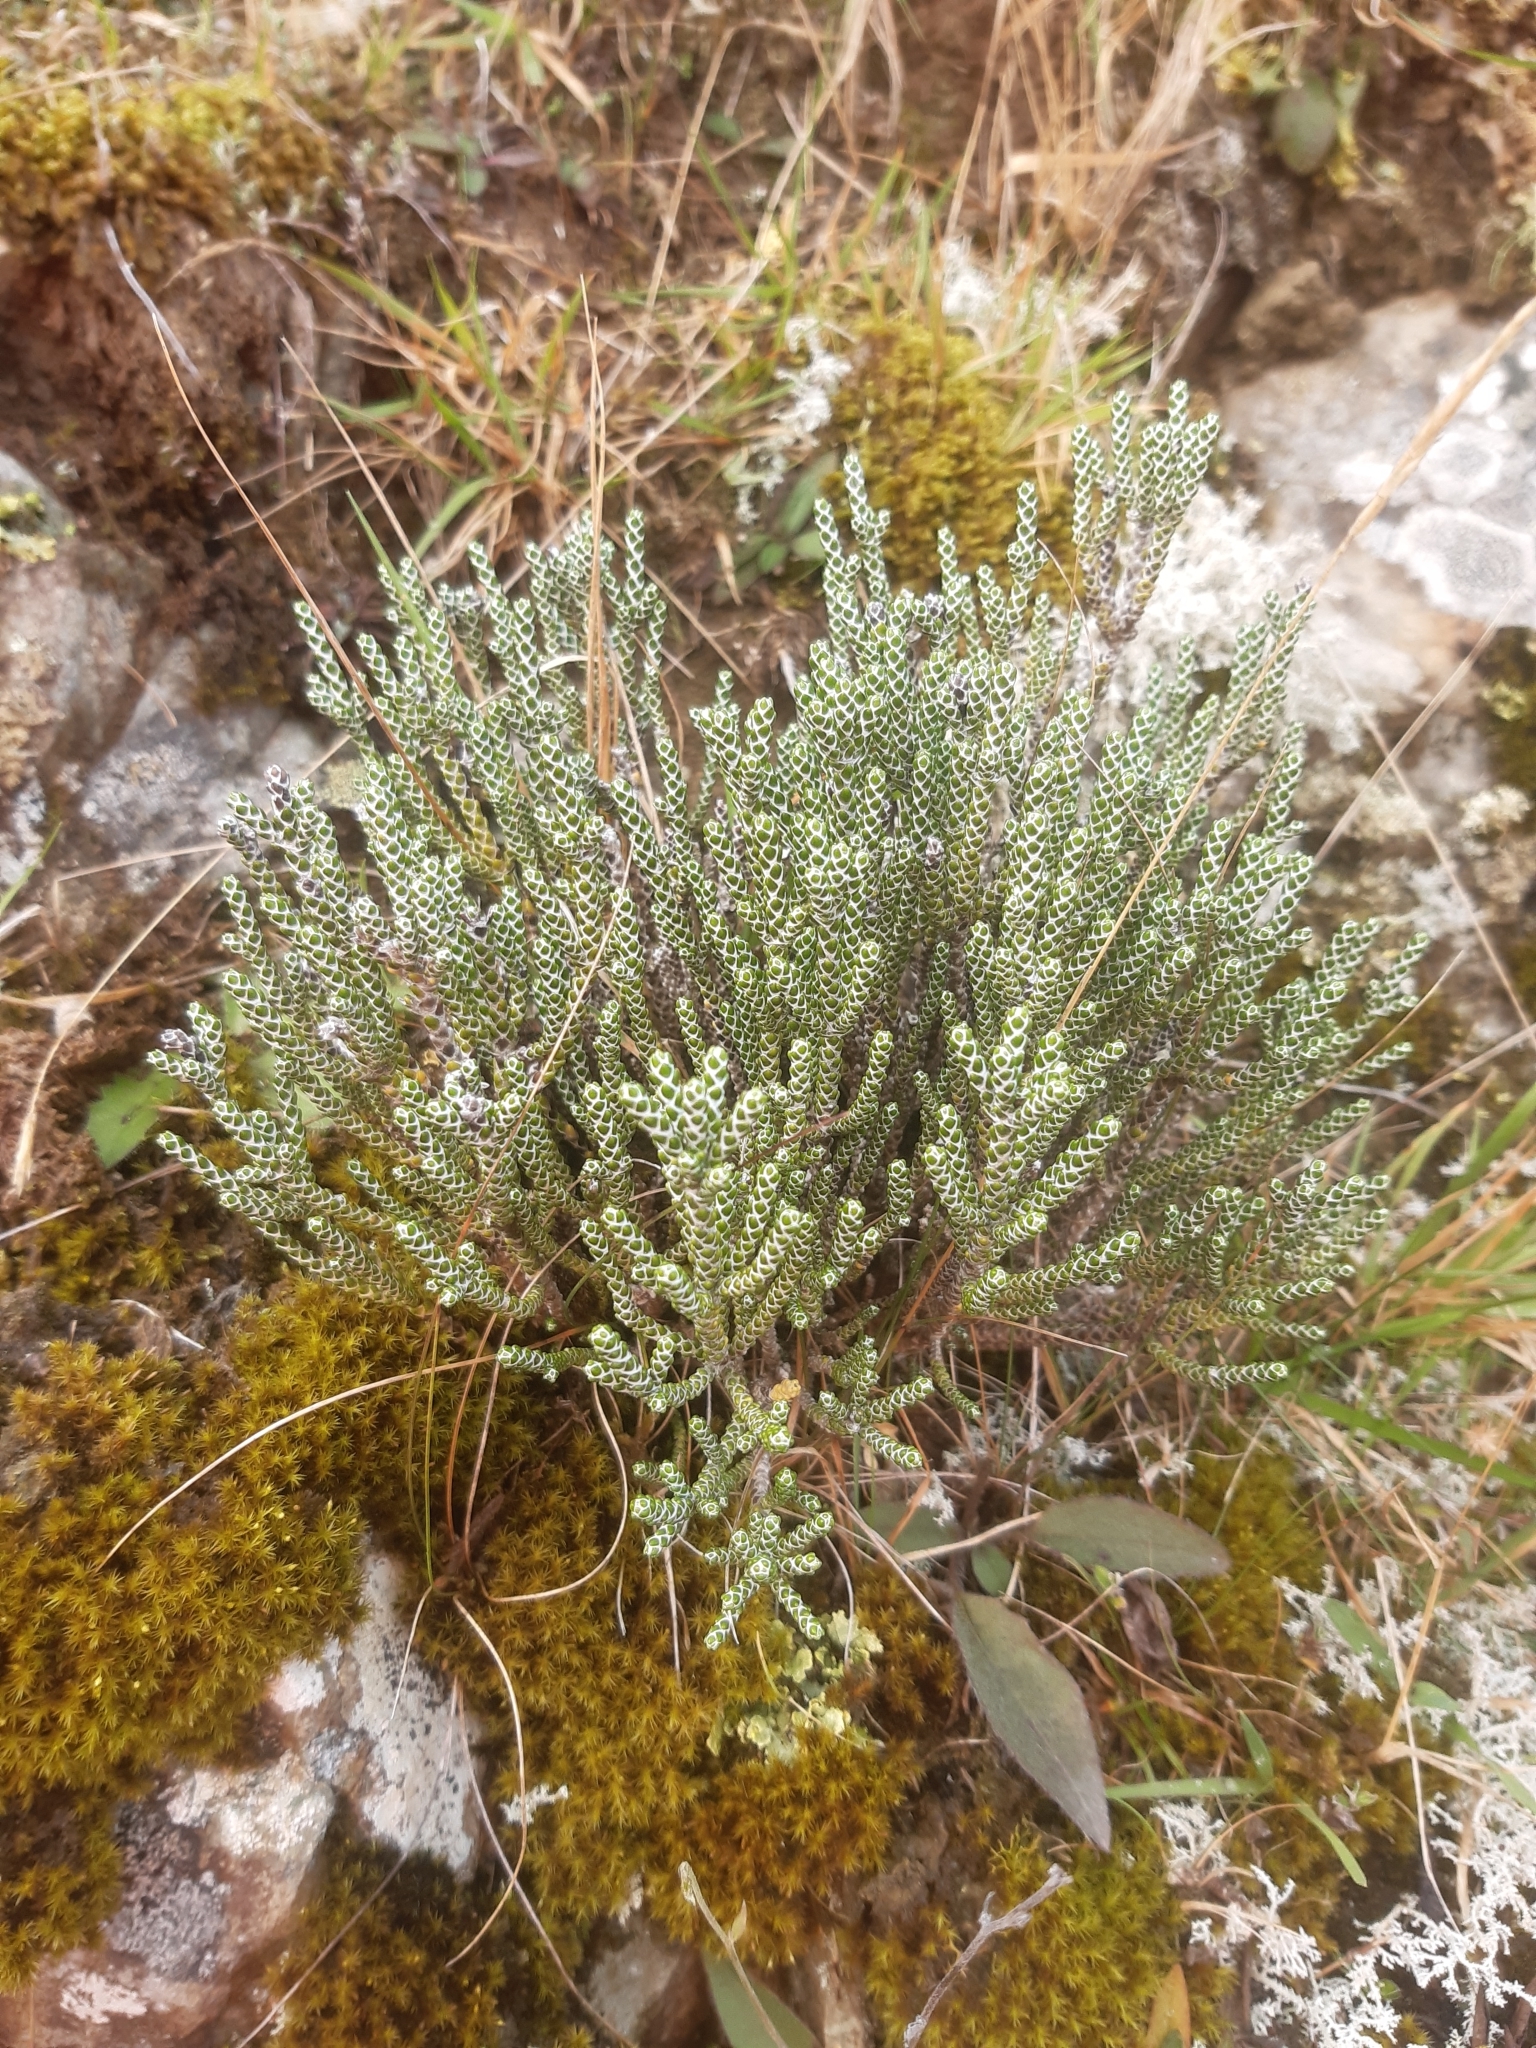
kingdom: Plantae
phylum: Tracheophyta
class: Magnoliopsida
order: Asterales
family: Asteraceae
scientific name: Asteraceae
